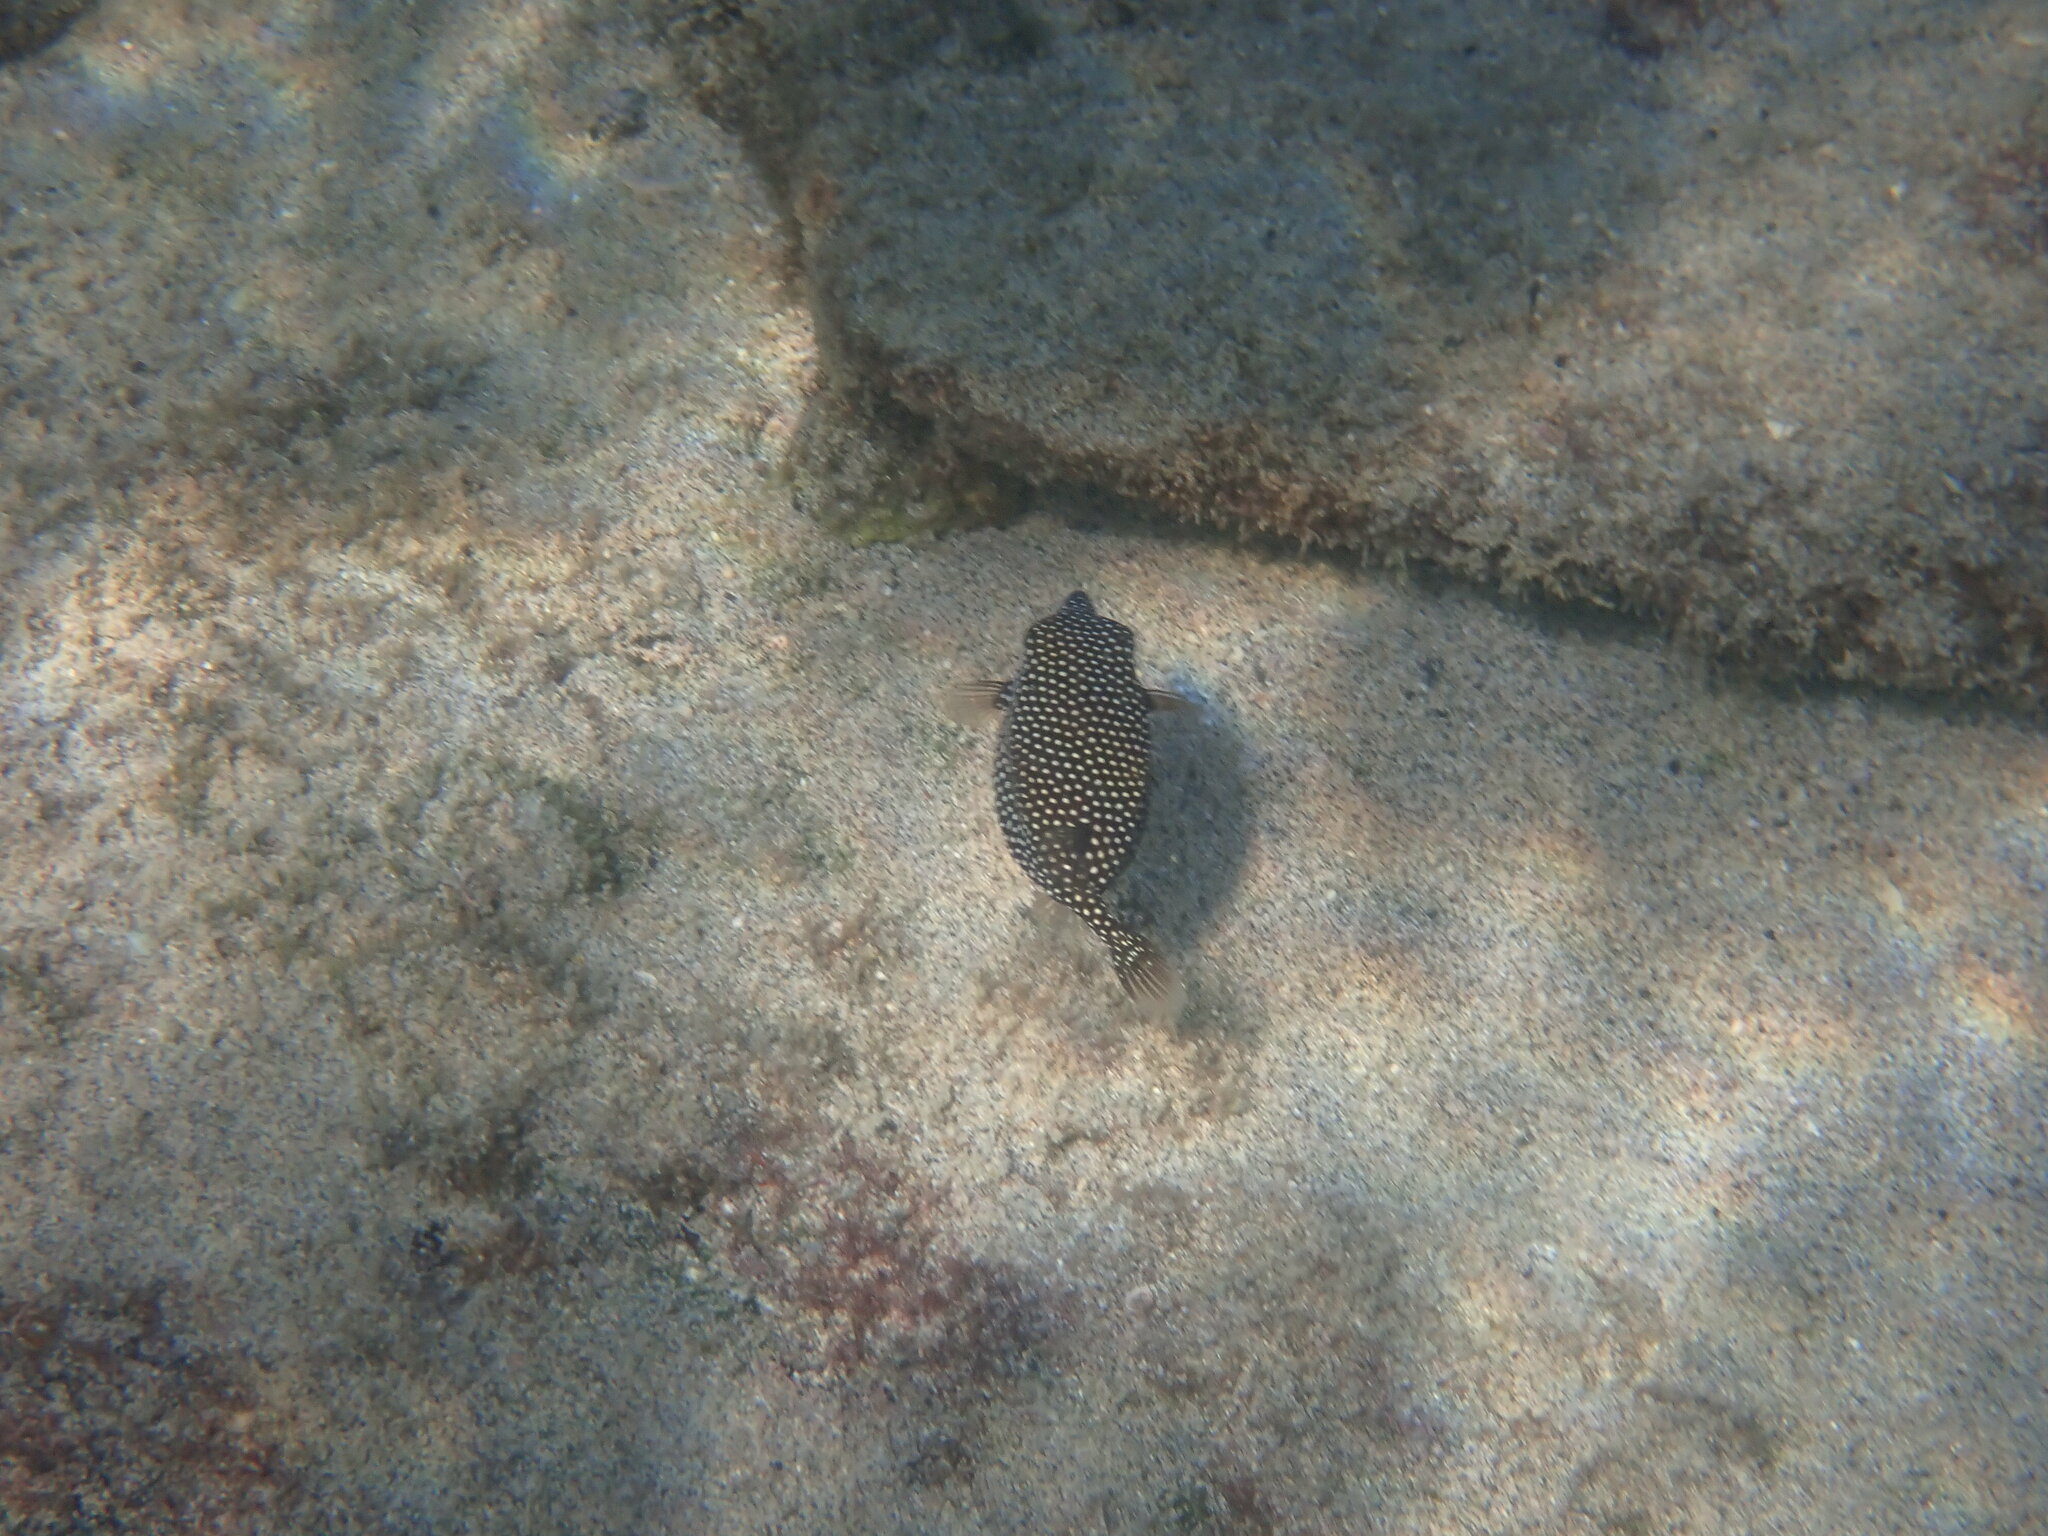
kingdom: Animalia
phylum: Chordata
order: Tetraodontiformes
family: Ostraciidae
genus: Ostracion
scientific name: Ostracion meleagris
